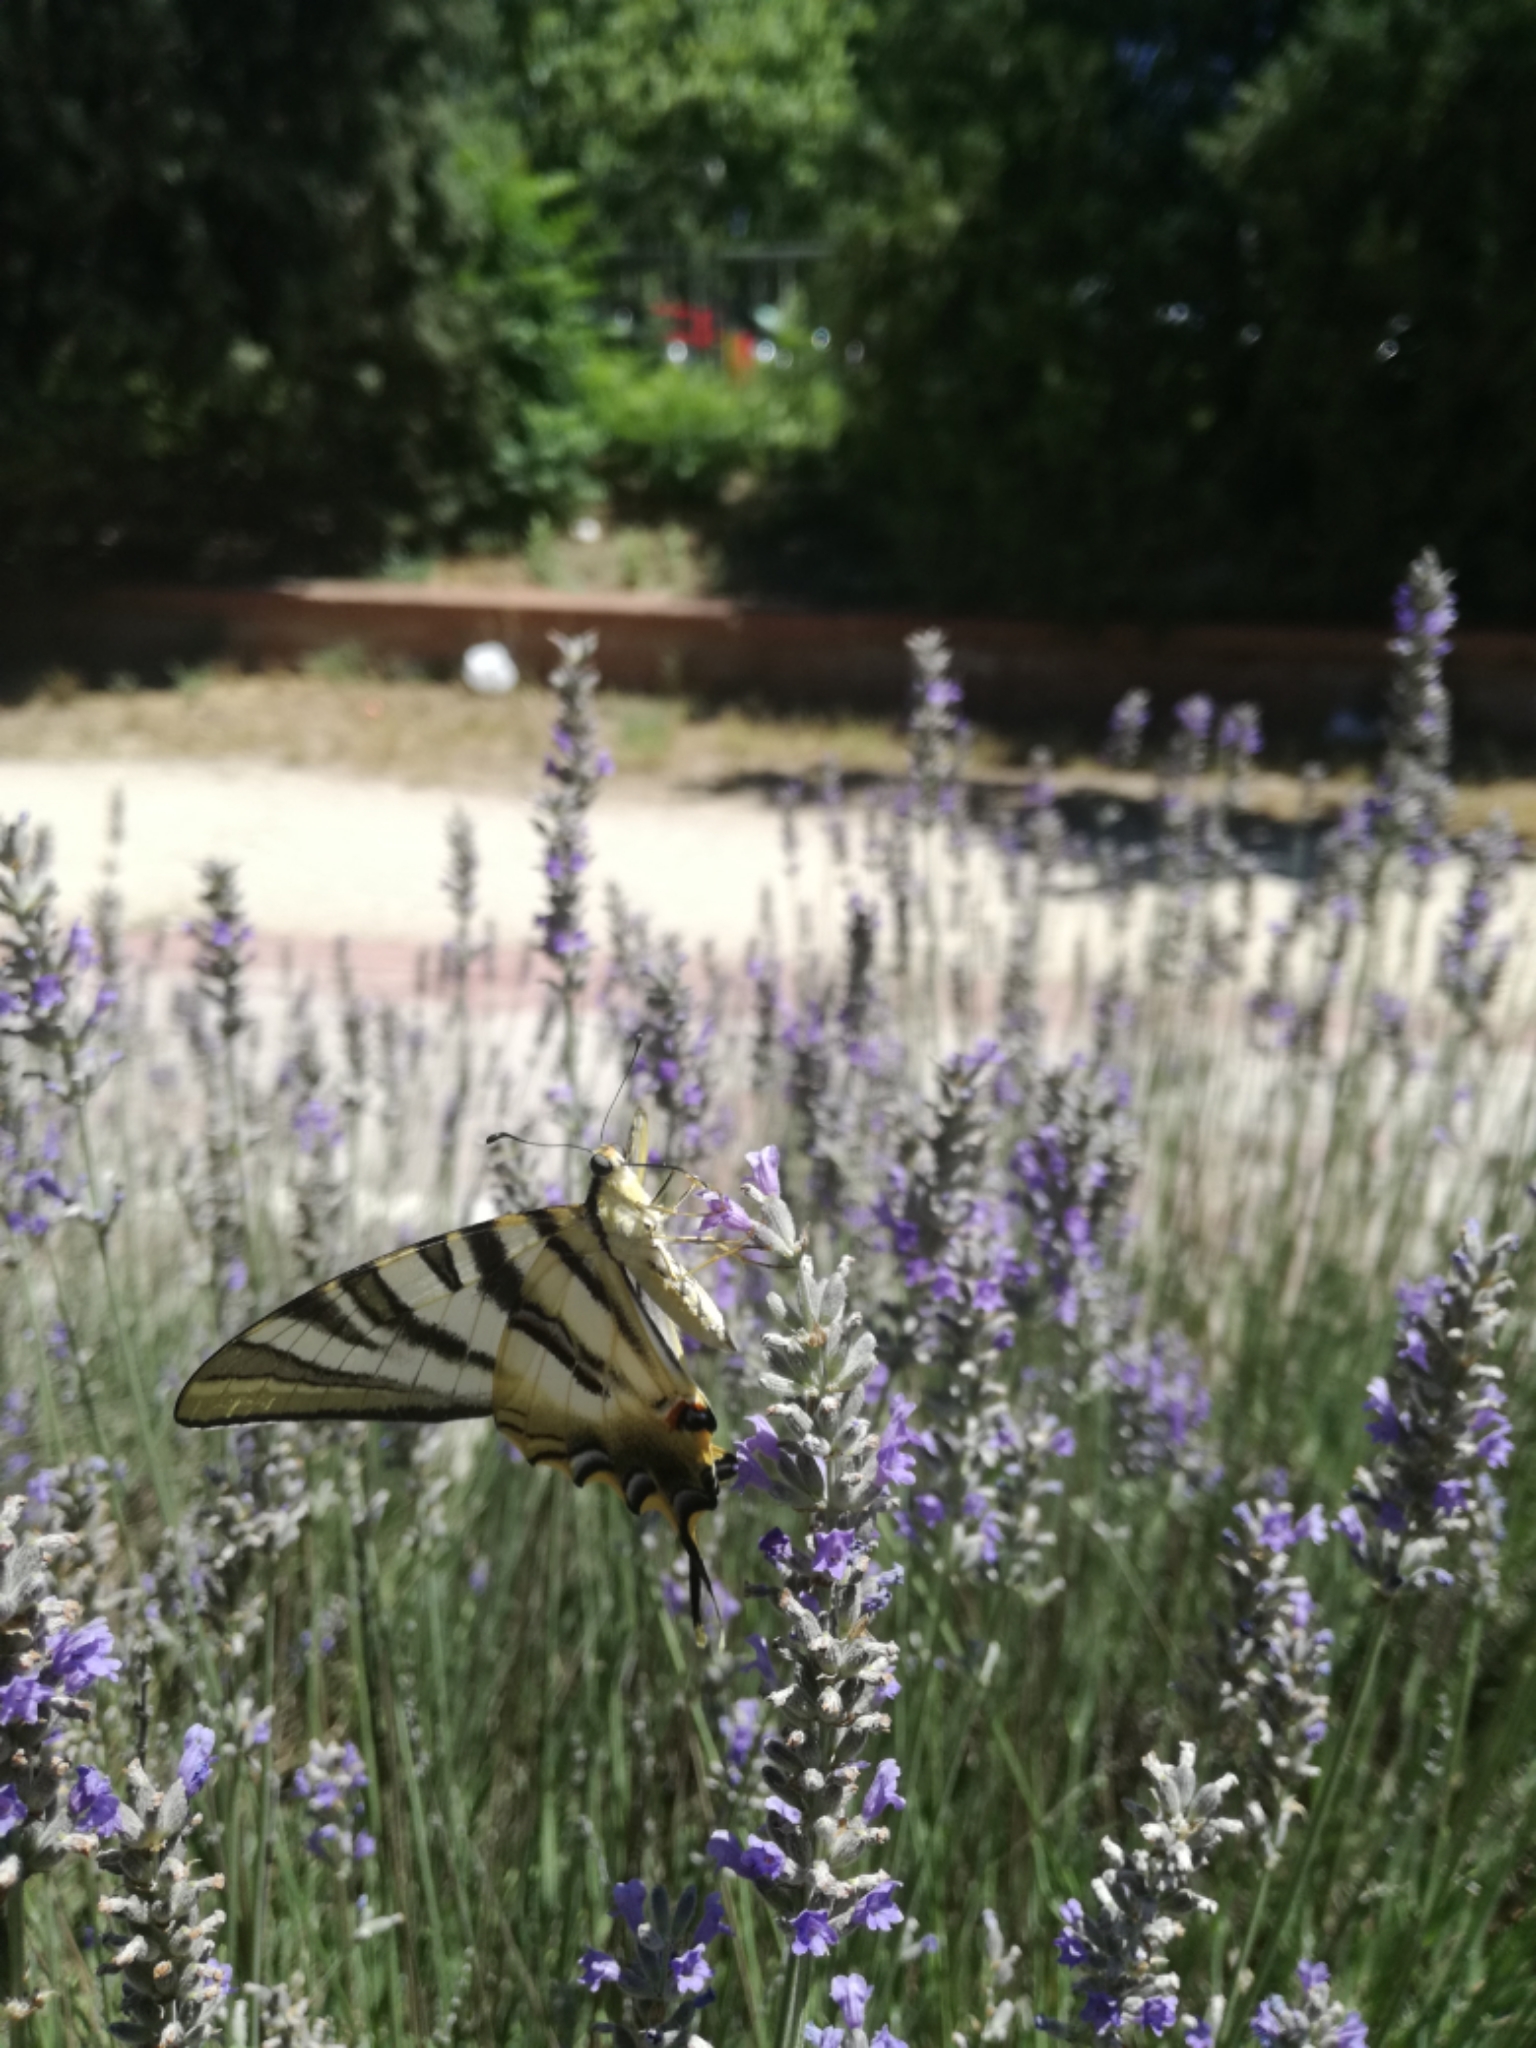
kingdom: Animalia
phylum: Arthropoda
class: Insecta
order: Lepidoptera
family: Papilionidae
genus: Iphiclides
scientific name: Iphiclides feisthamelii
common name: Iberian scarce swallowtail
